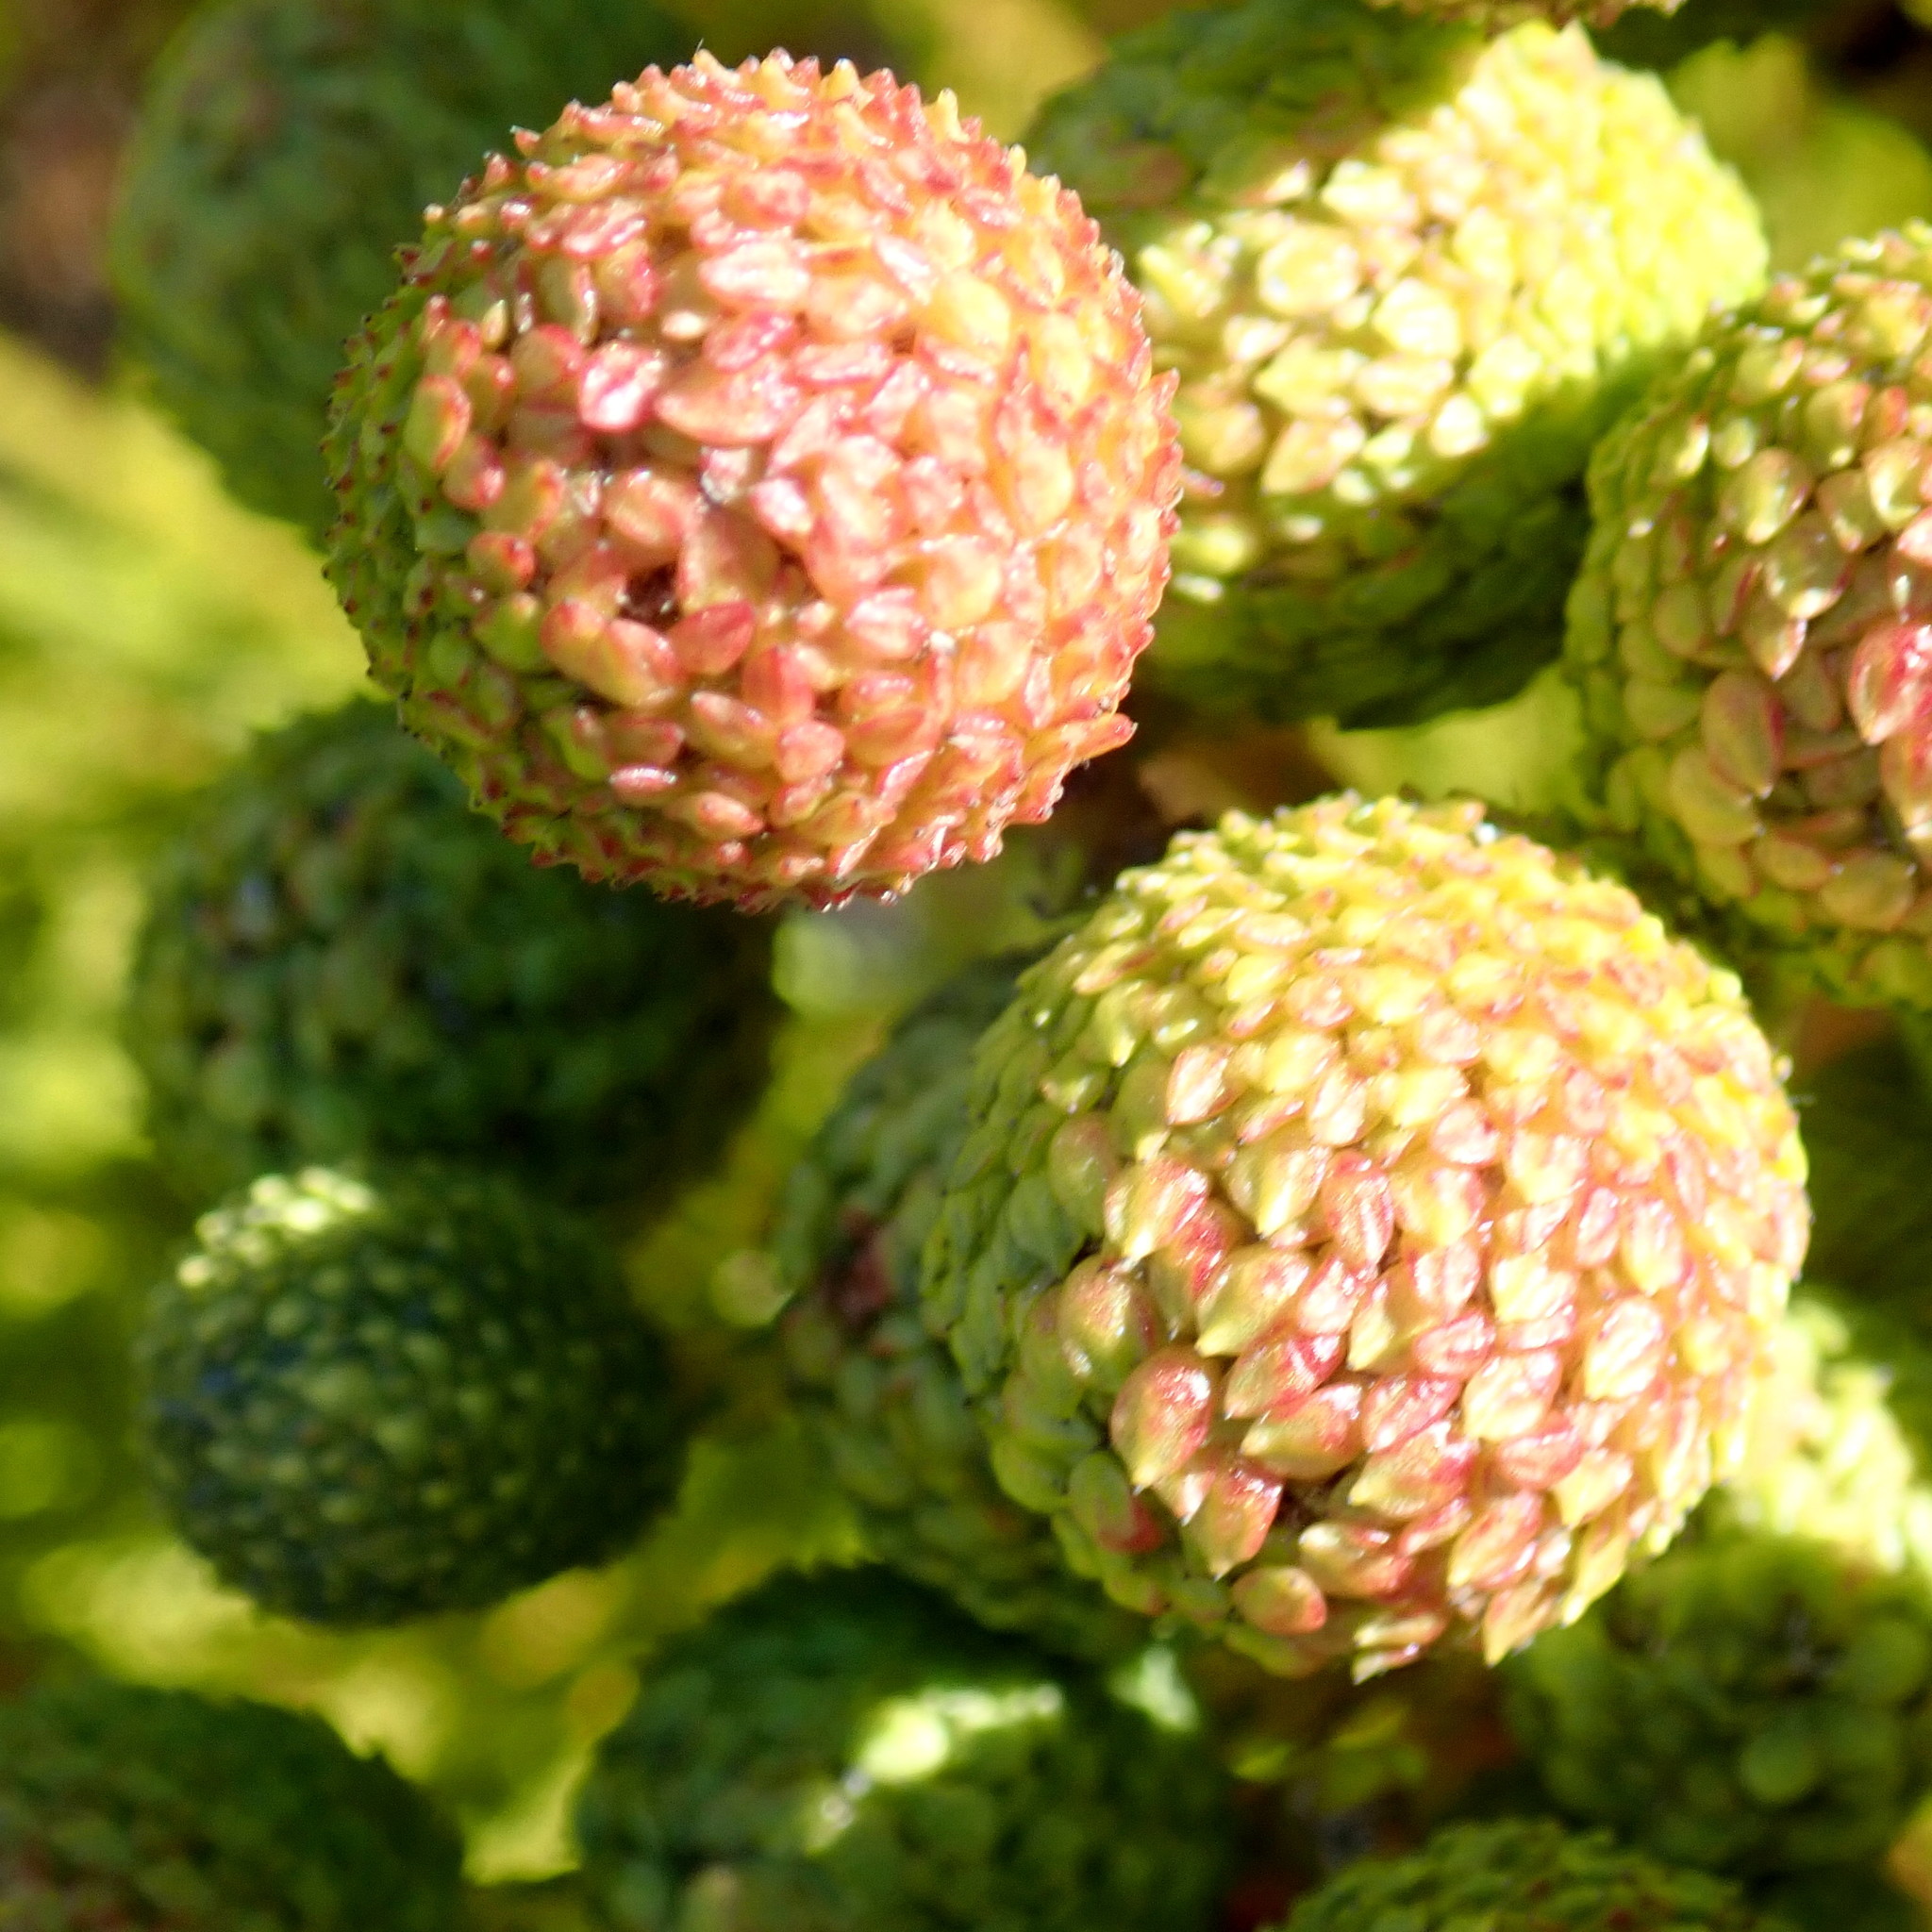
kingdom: Plantae
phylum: Tracheophyta
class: Magnoliopsida
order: Bruniales
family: Bruniaceae
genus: Berzelia
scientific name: Berzelia intermedia
